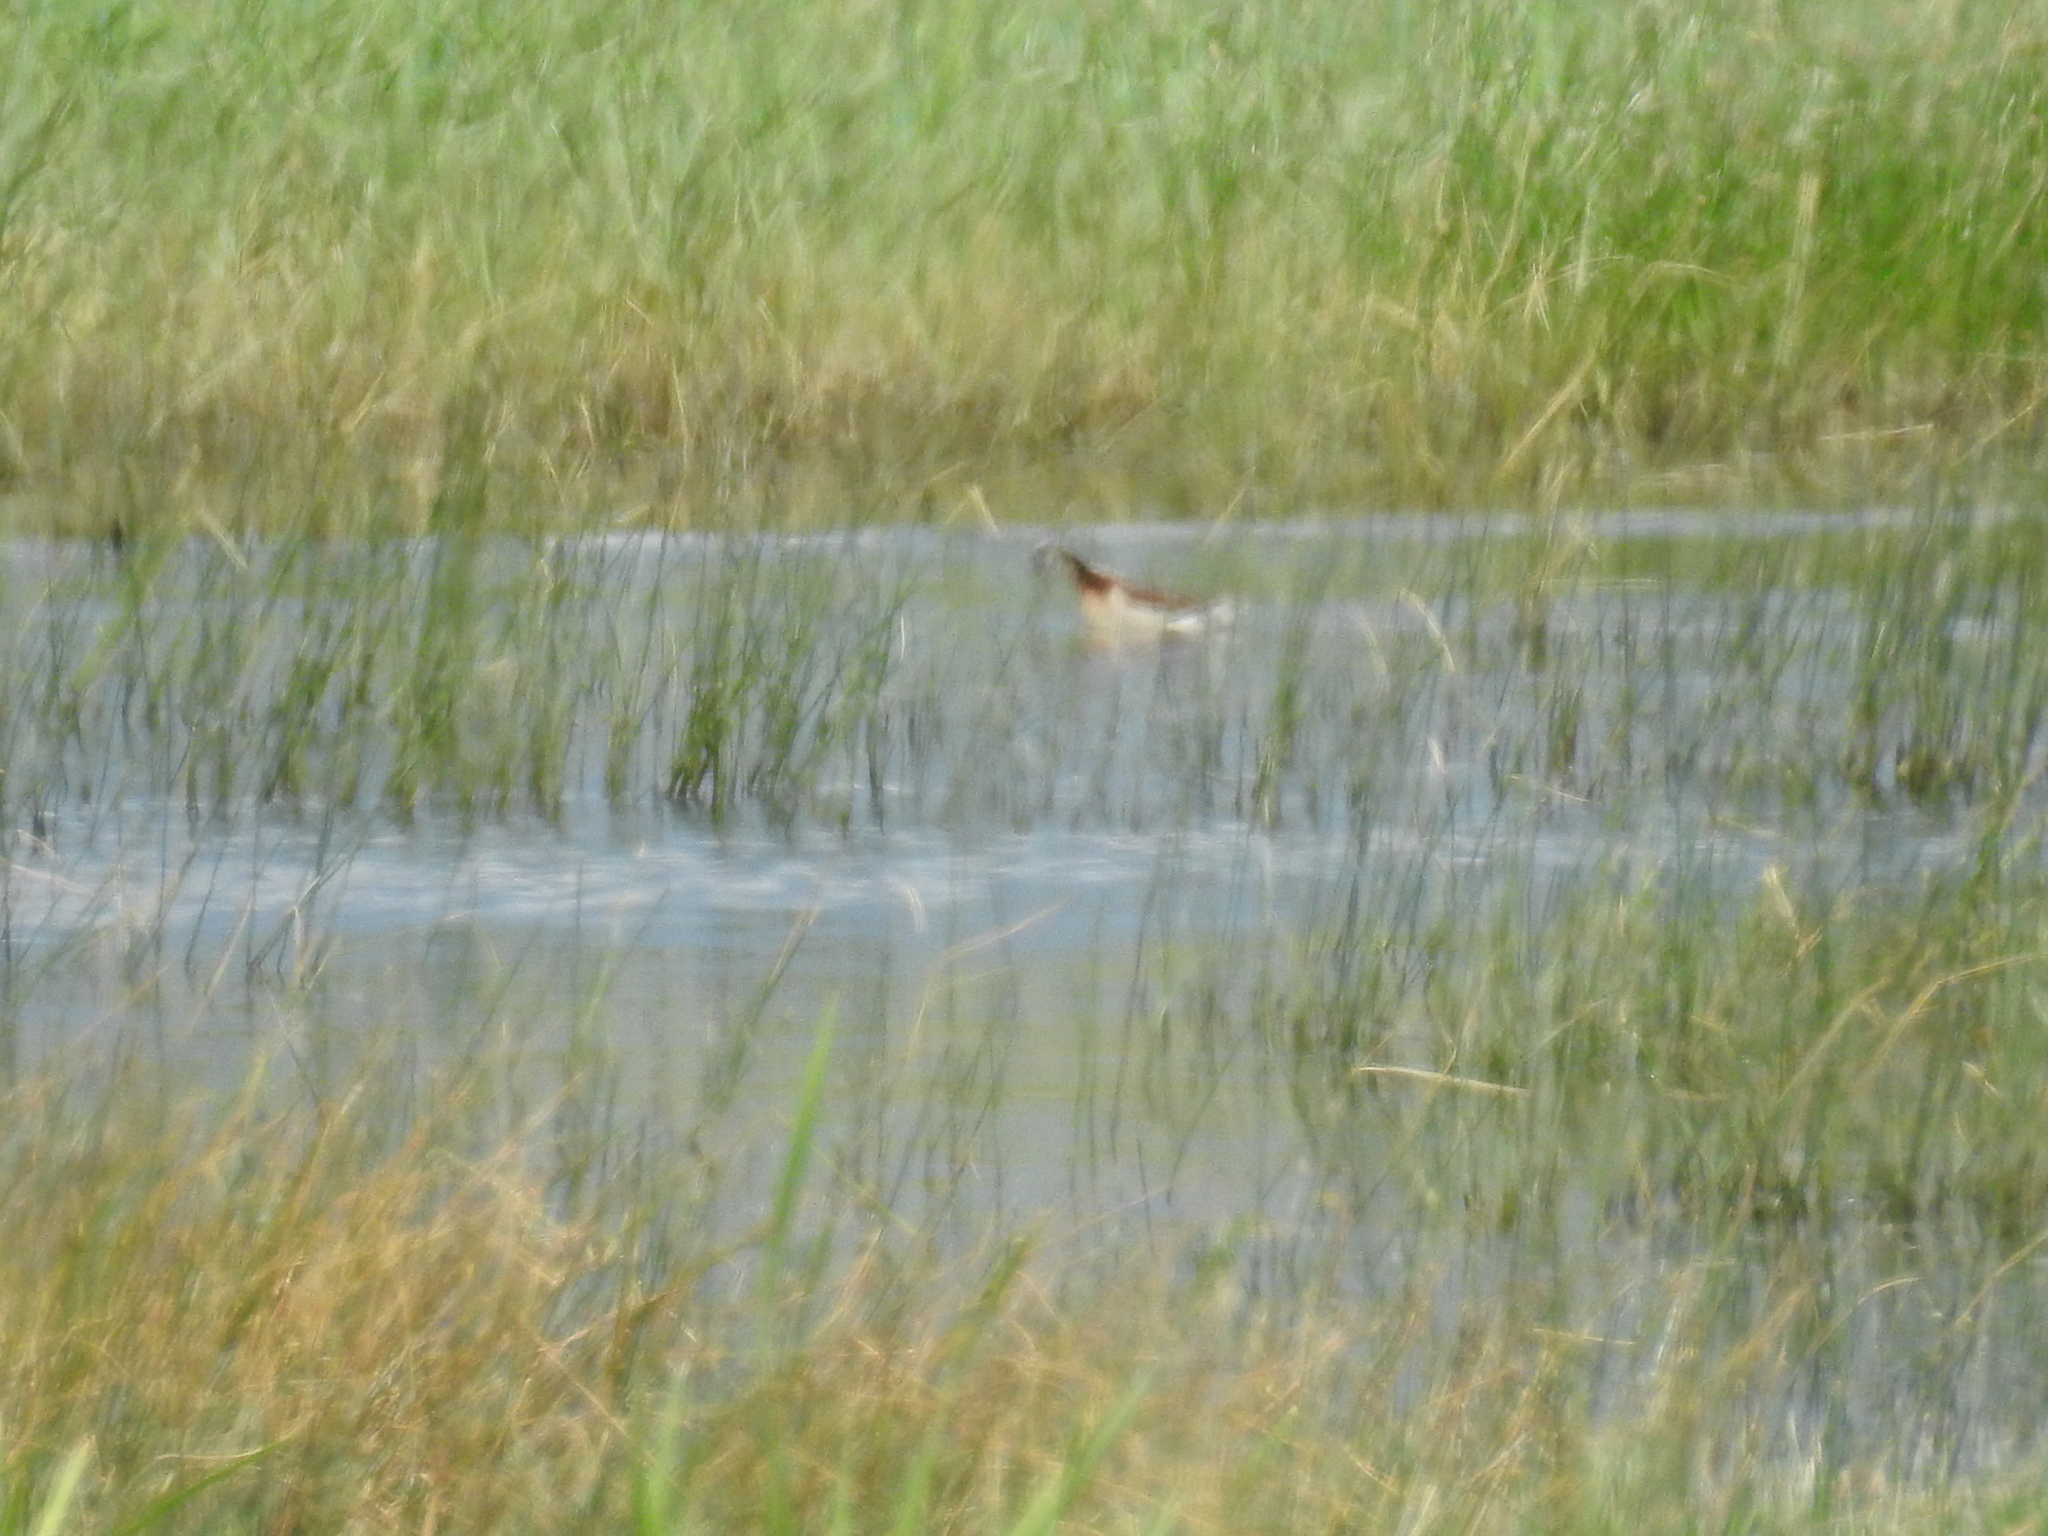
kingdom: Animalia
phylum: Chordata
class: Aves
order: Charadriiformes
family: Scolopacidae
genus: Phalaropus
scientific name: Phalaropus tricolor
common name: Wilson's phalarope
